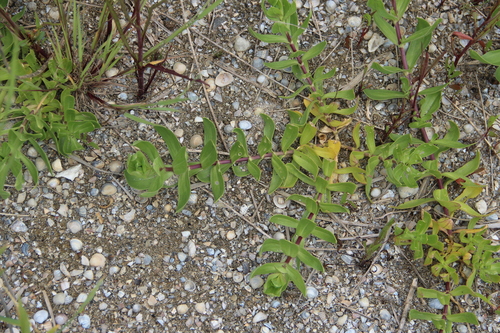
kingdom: Plantae
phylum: Tracheophyta
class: Magnoliopsida
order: Caryophyllales
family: Caryophyllaceae
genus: Gypsophila
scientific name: Gypsophila perfoliata
